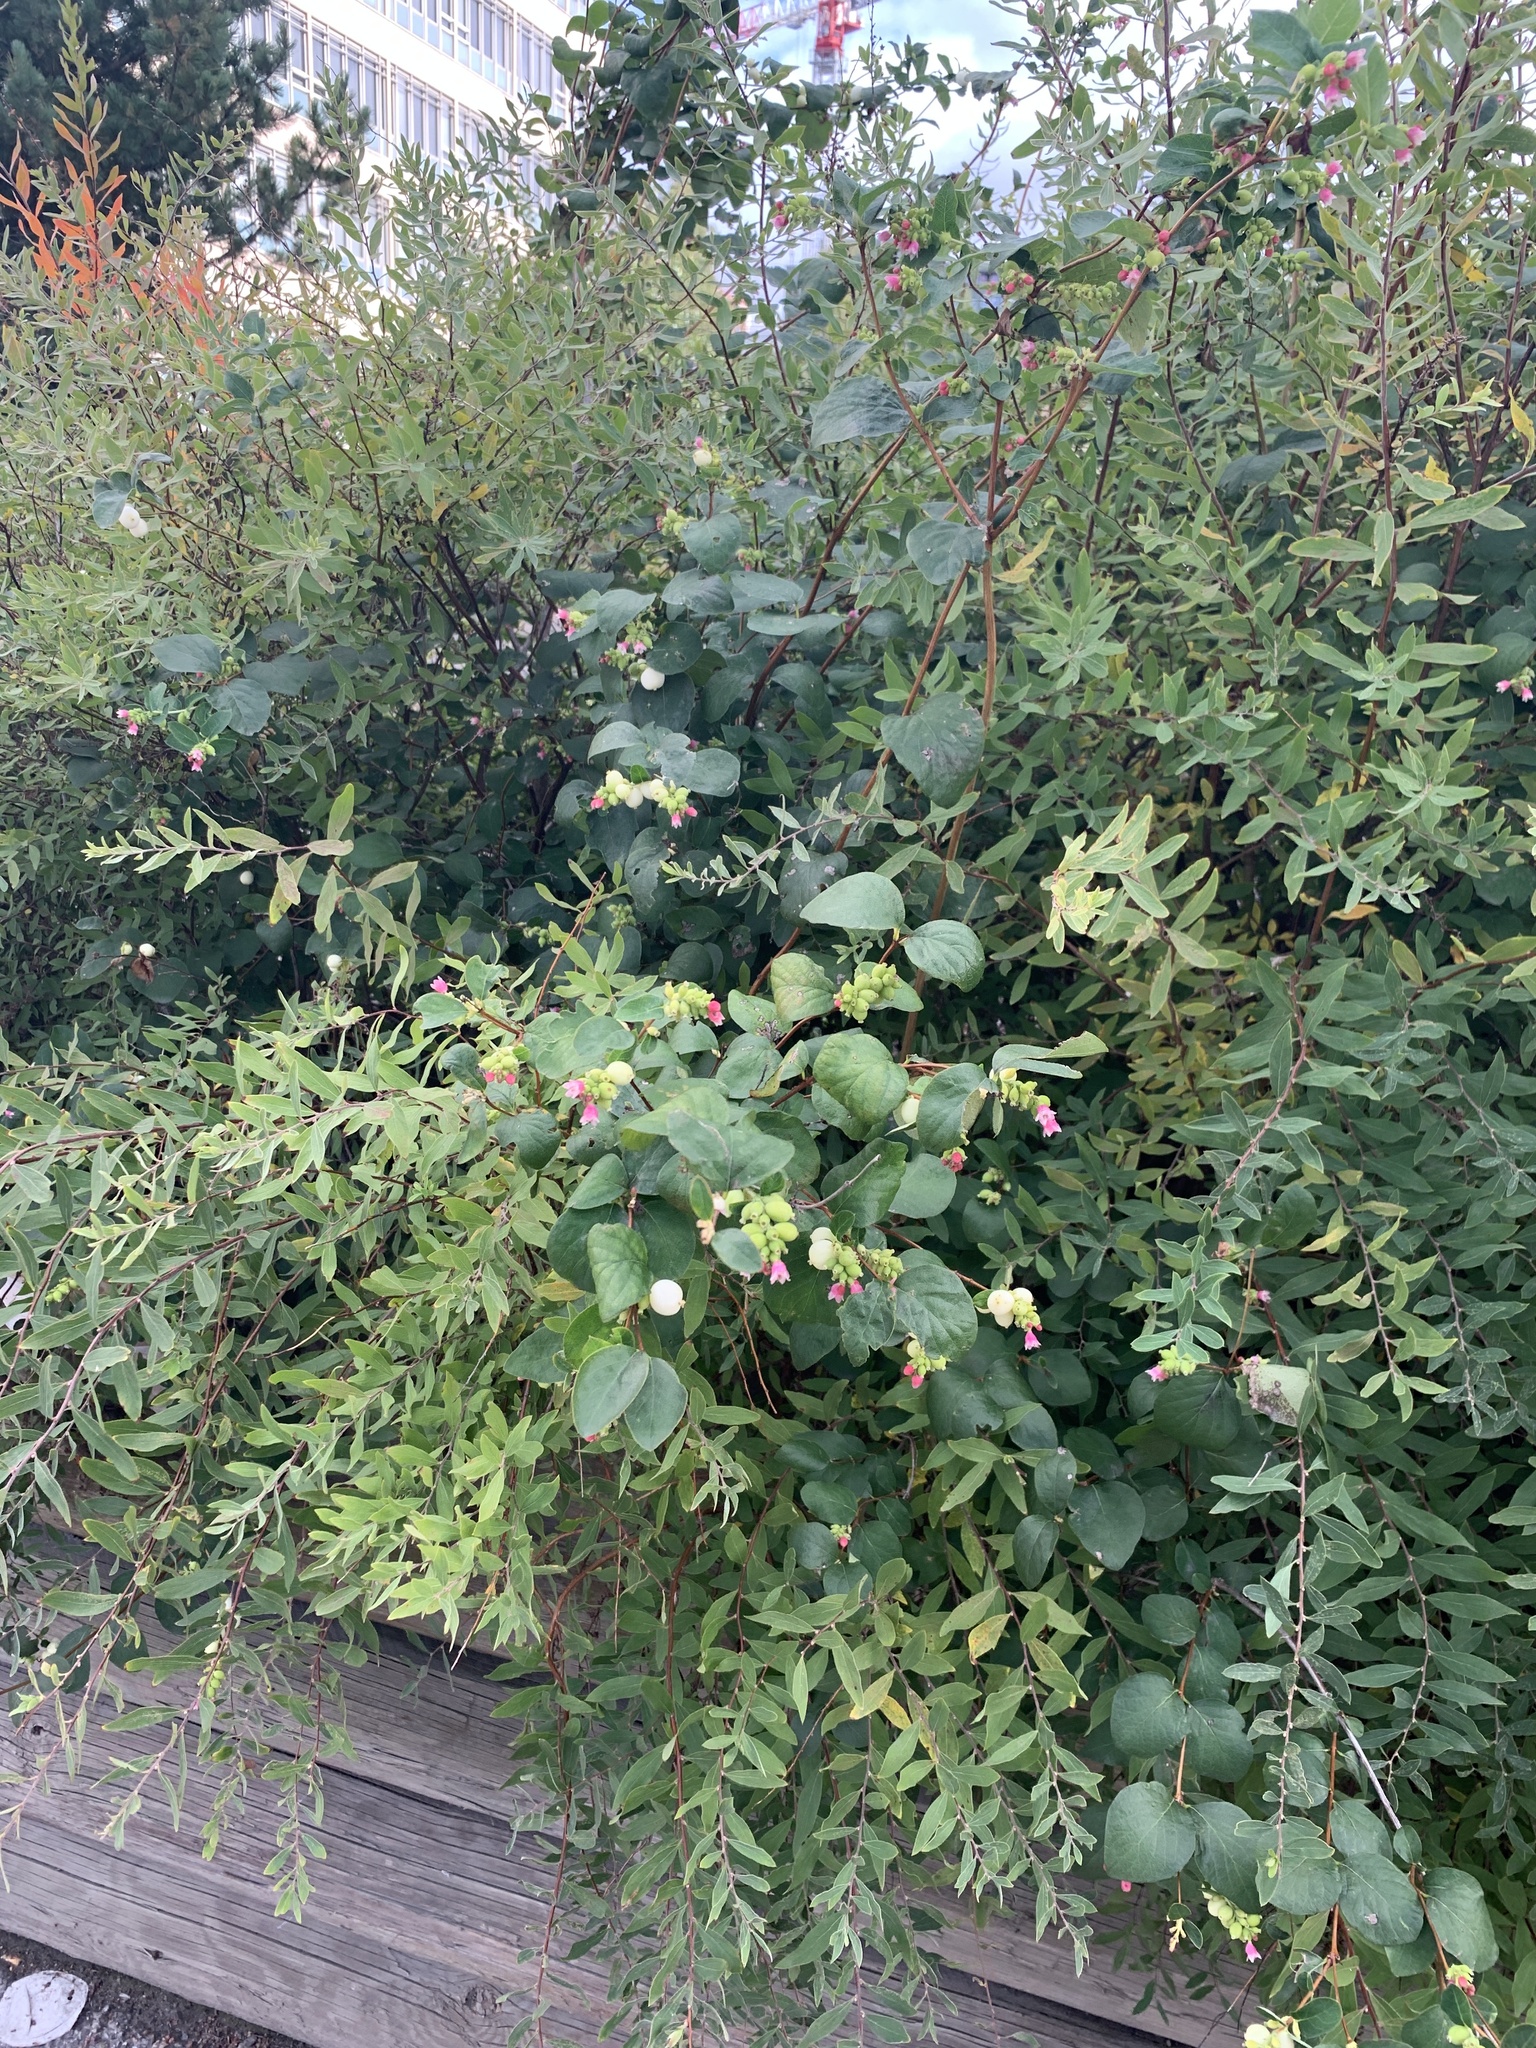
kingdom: Plantae
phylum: Tracheophyta
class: Magnoliopsida
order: Dipsacales
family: Caprifoliaceae
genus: Symphoricarpos
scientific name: Symphoricarpos albus
